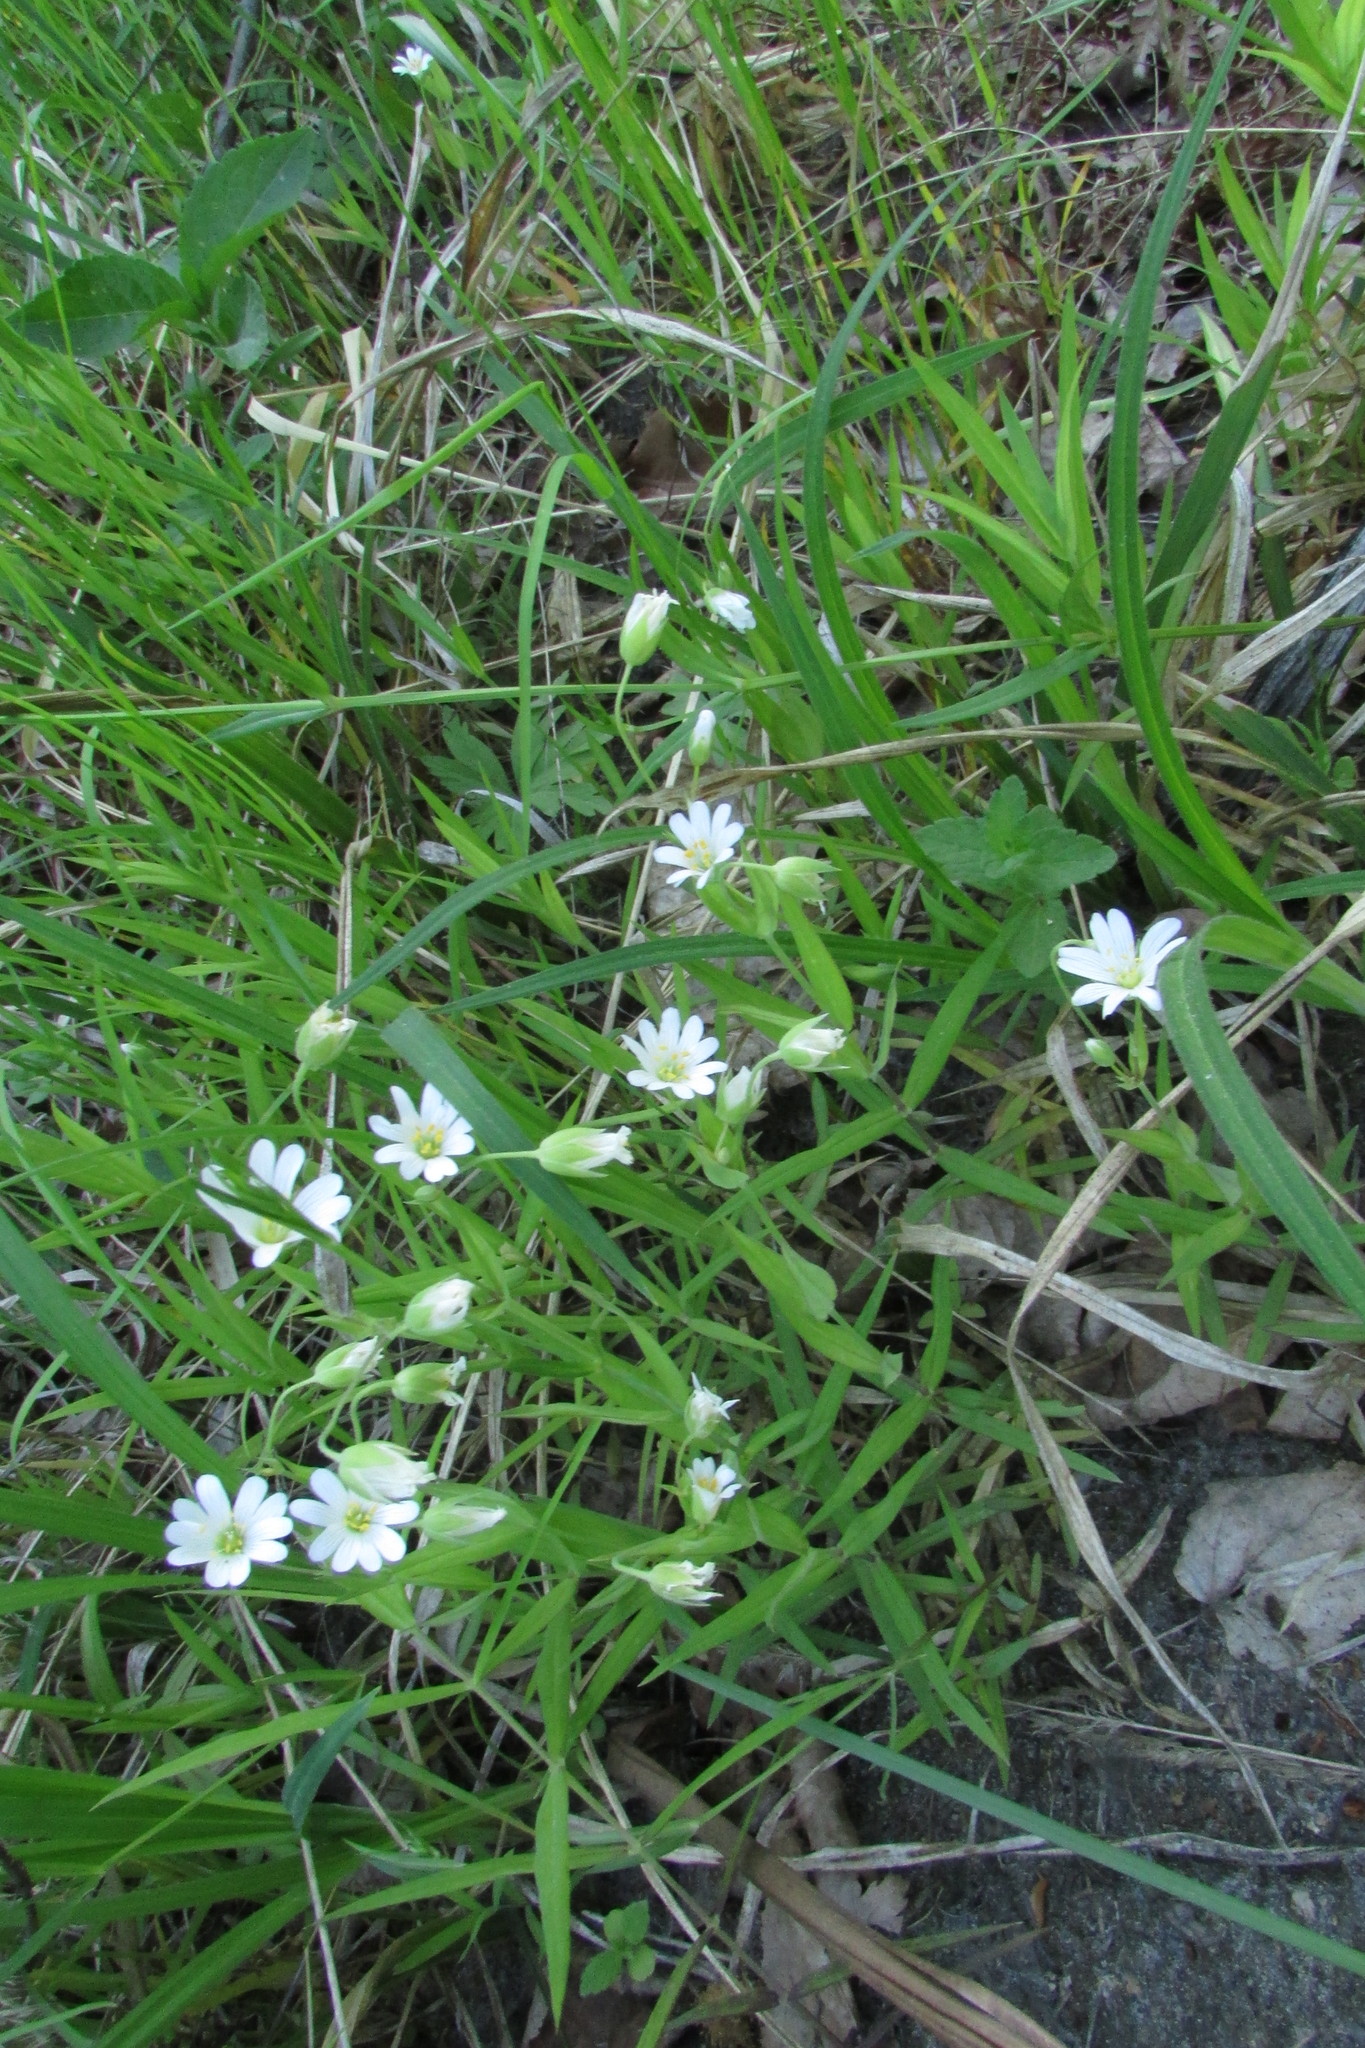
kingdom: Plantae
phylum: Tracheophyta
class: Magnoliopsida
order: Caryophyllales
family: Caryophyllaceae
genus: Rabelera
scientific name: Rabelera holostea
